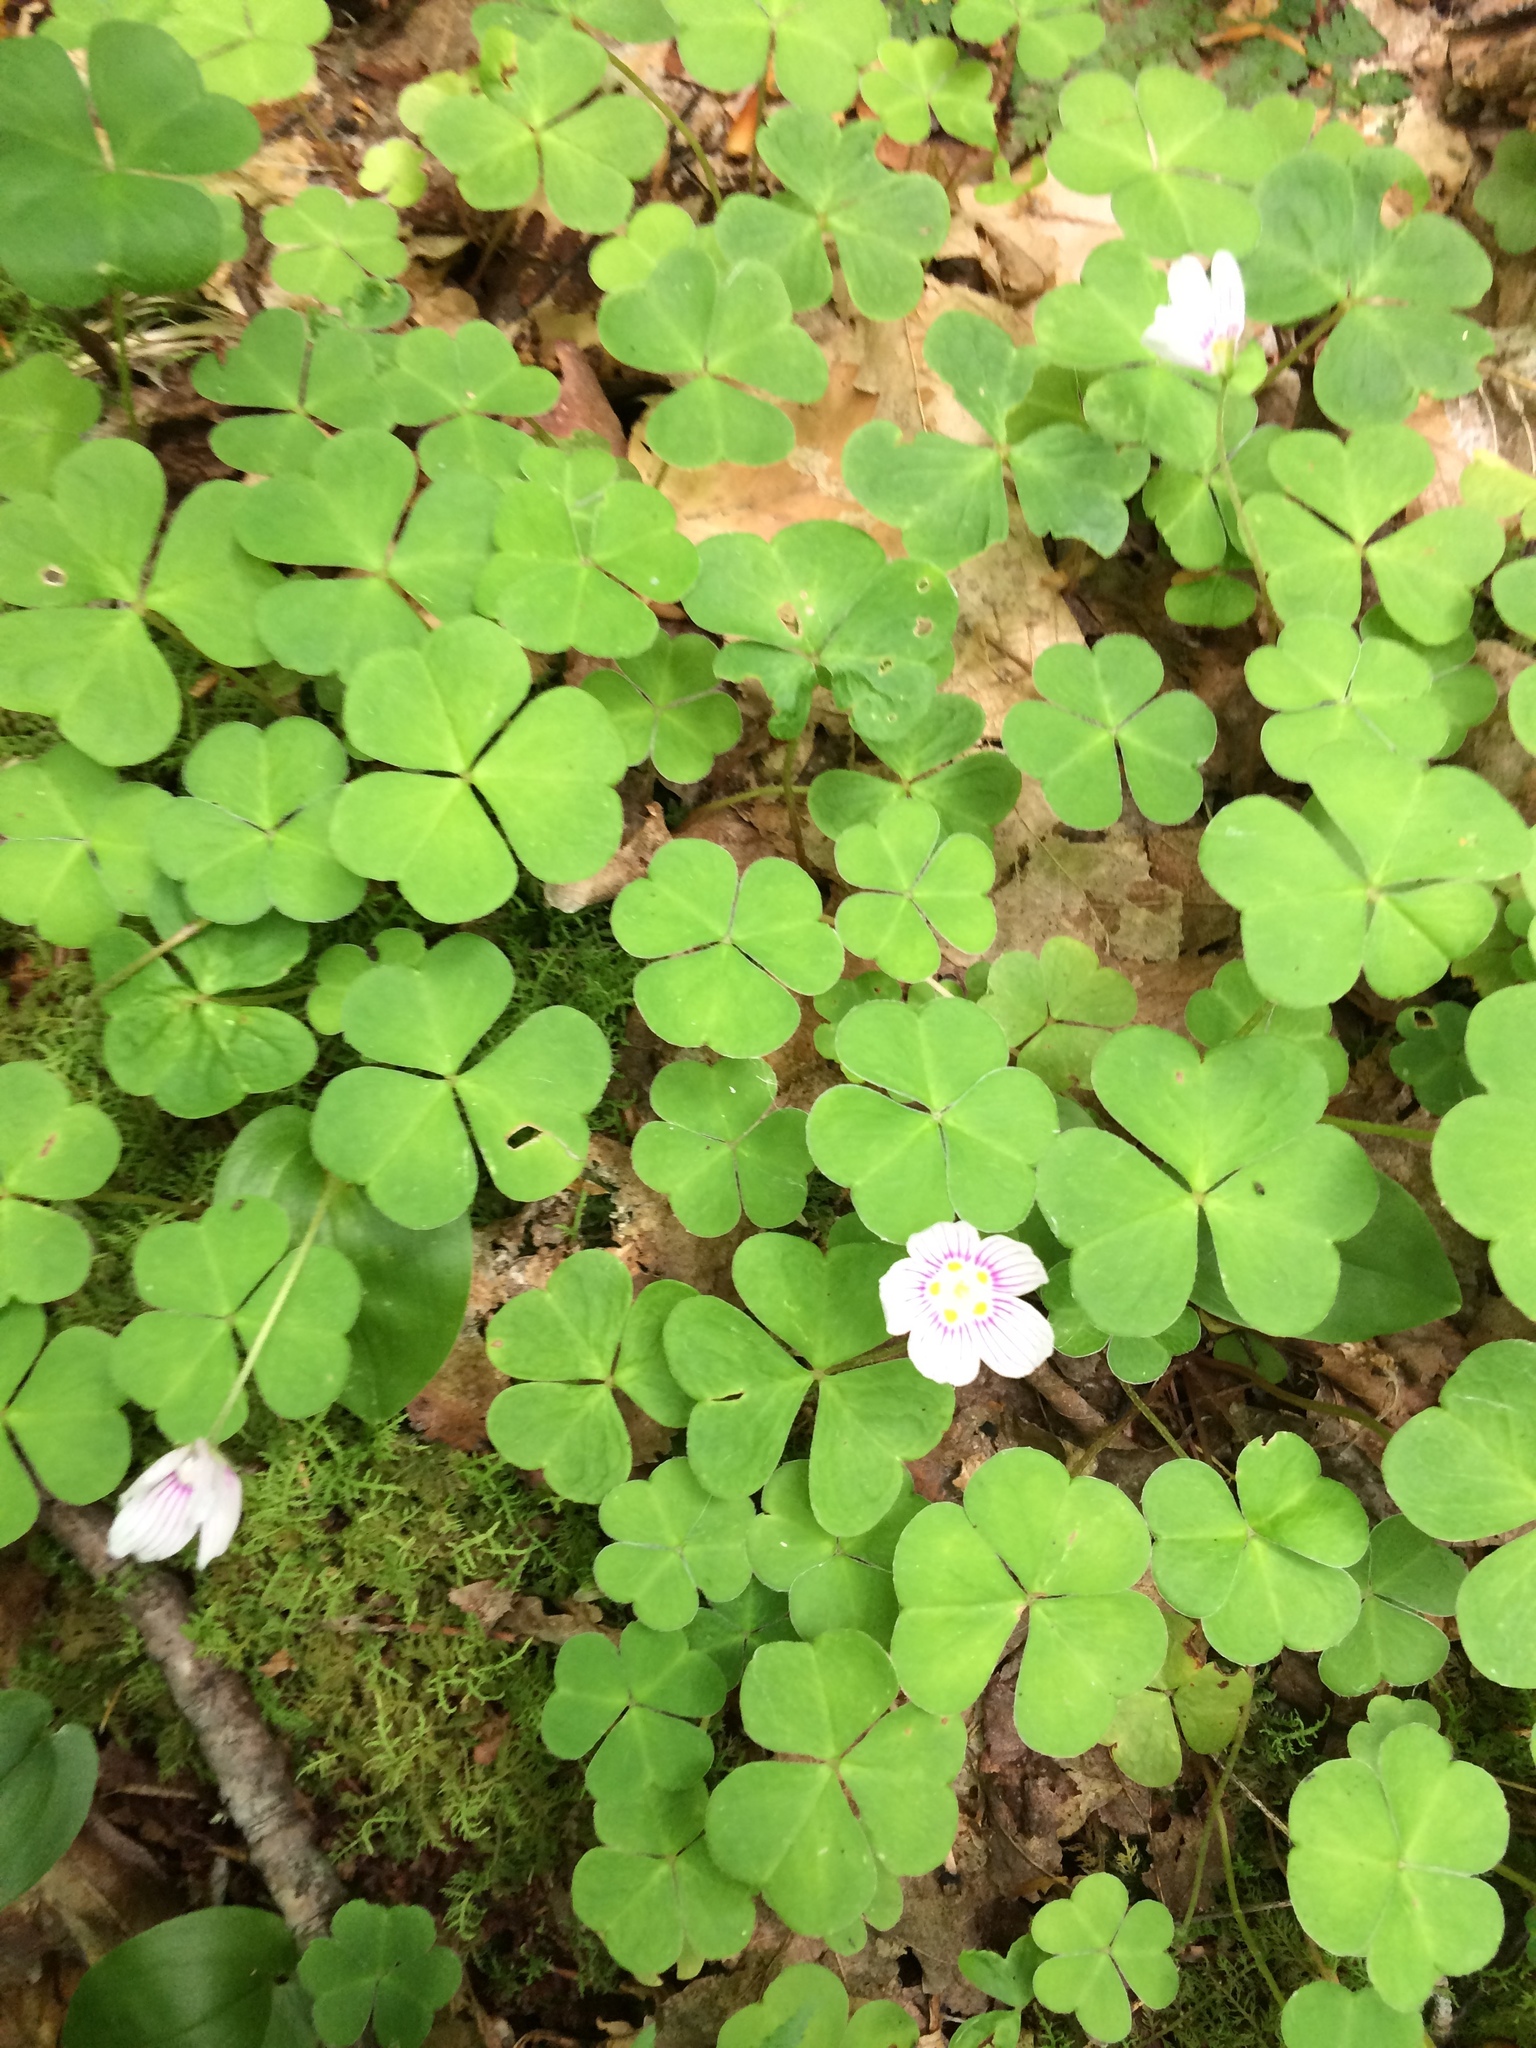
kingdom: Plantae
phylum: Tracheophyta
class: Magnoliopsida
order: Oxalidales
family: Oxalidaceae
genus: Oxalis
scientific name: Oxalis montana
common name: American wood-sorrel
